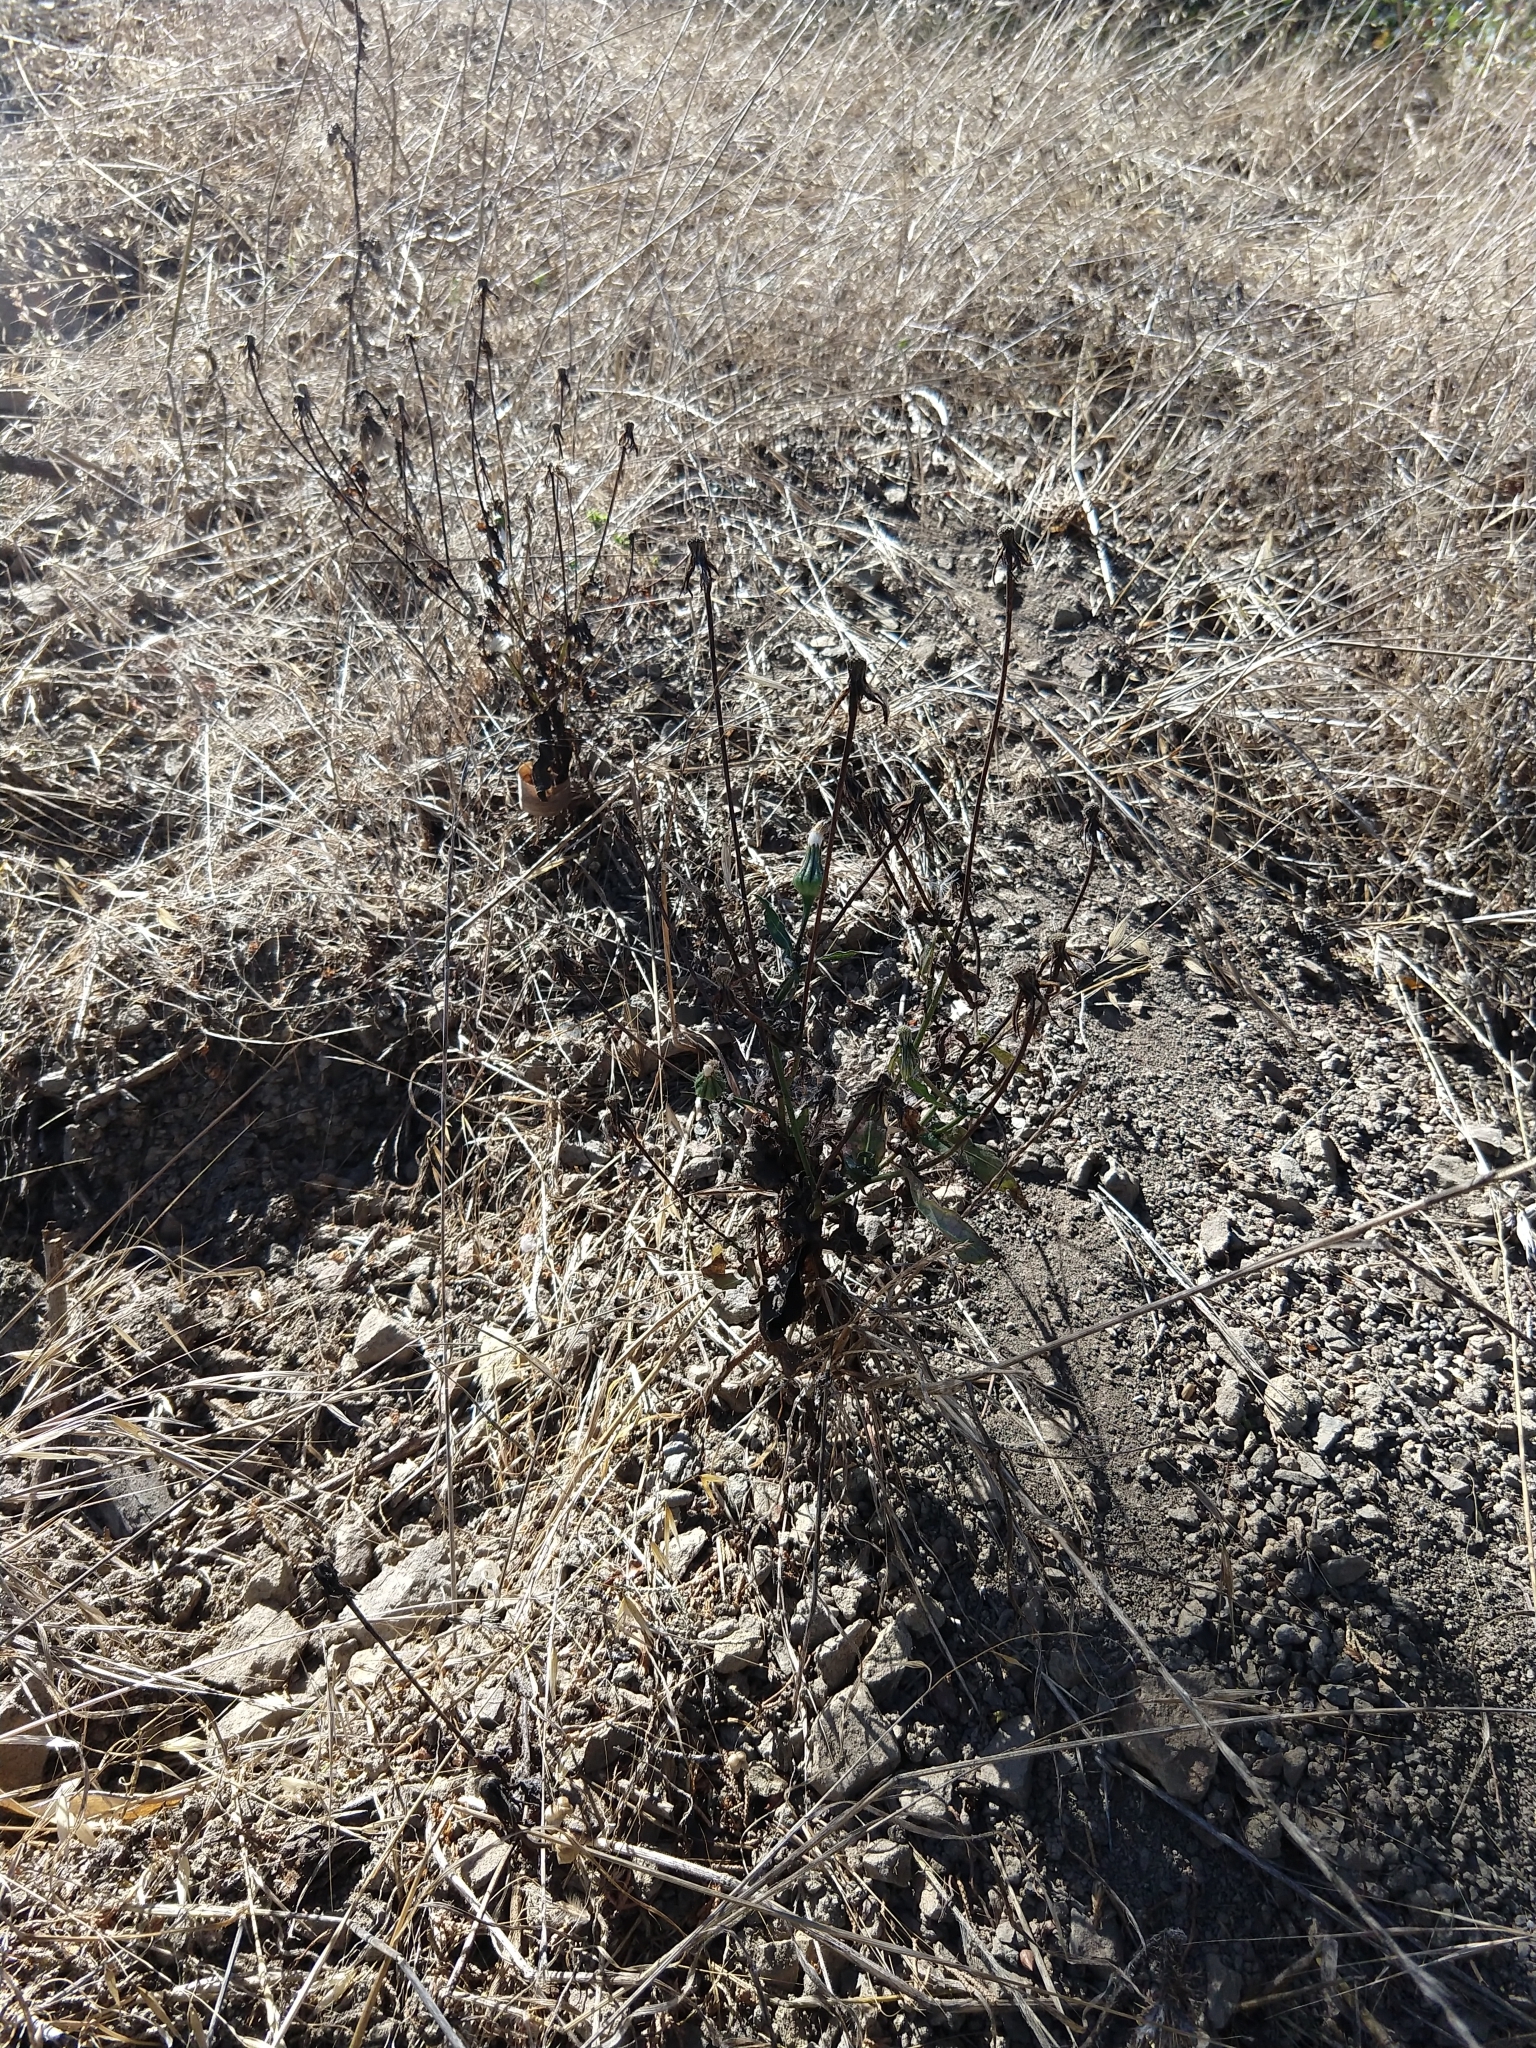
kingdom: Plantae
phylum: Tracheophyta
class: Magnoliopsida
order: Asterales
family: Asteraceae
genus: Urospermum
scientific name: Urospermum picroides
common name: False hawkbit
